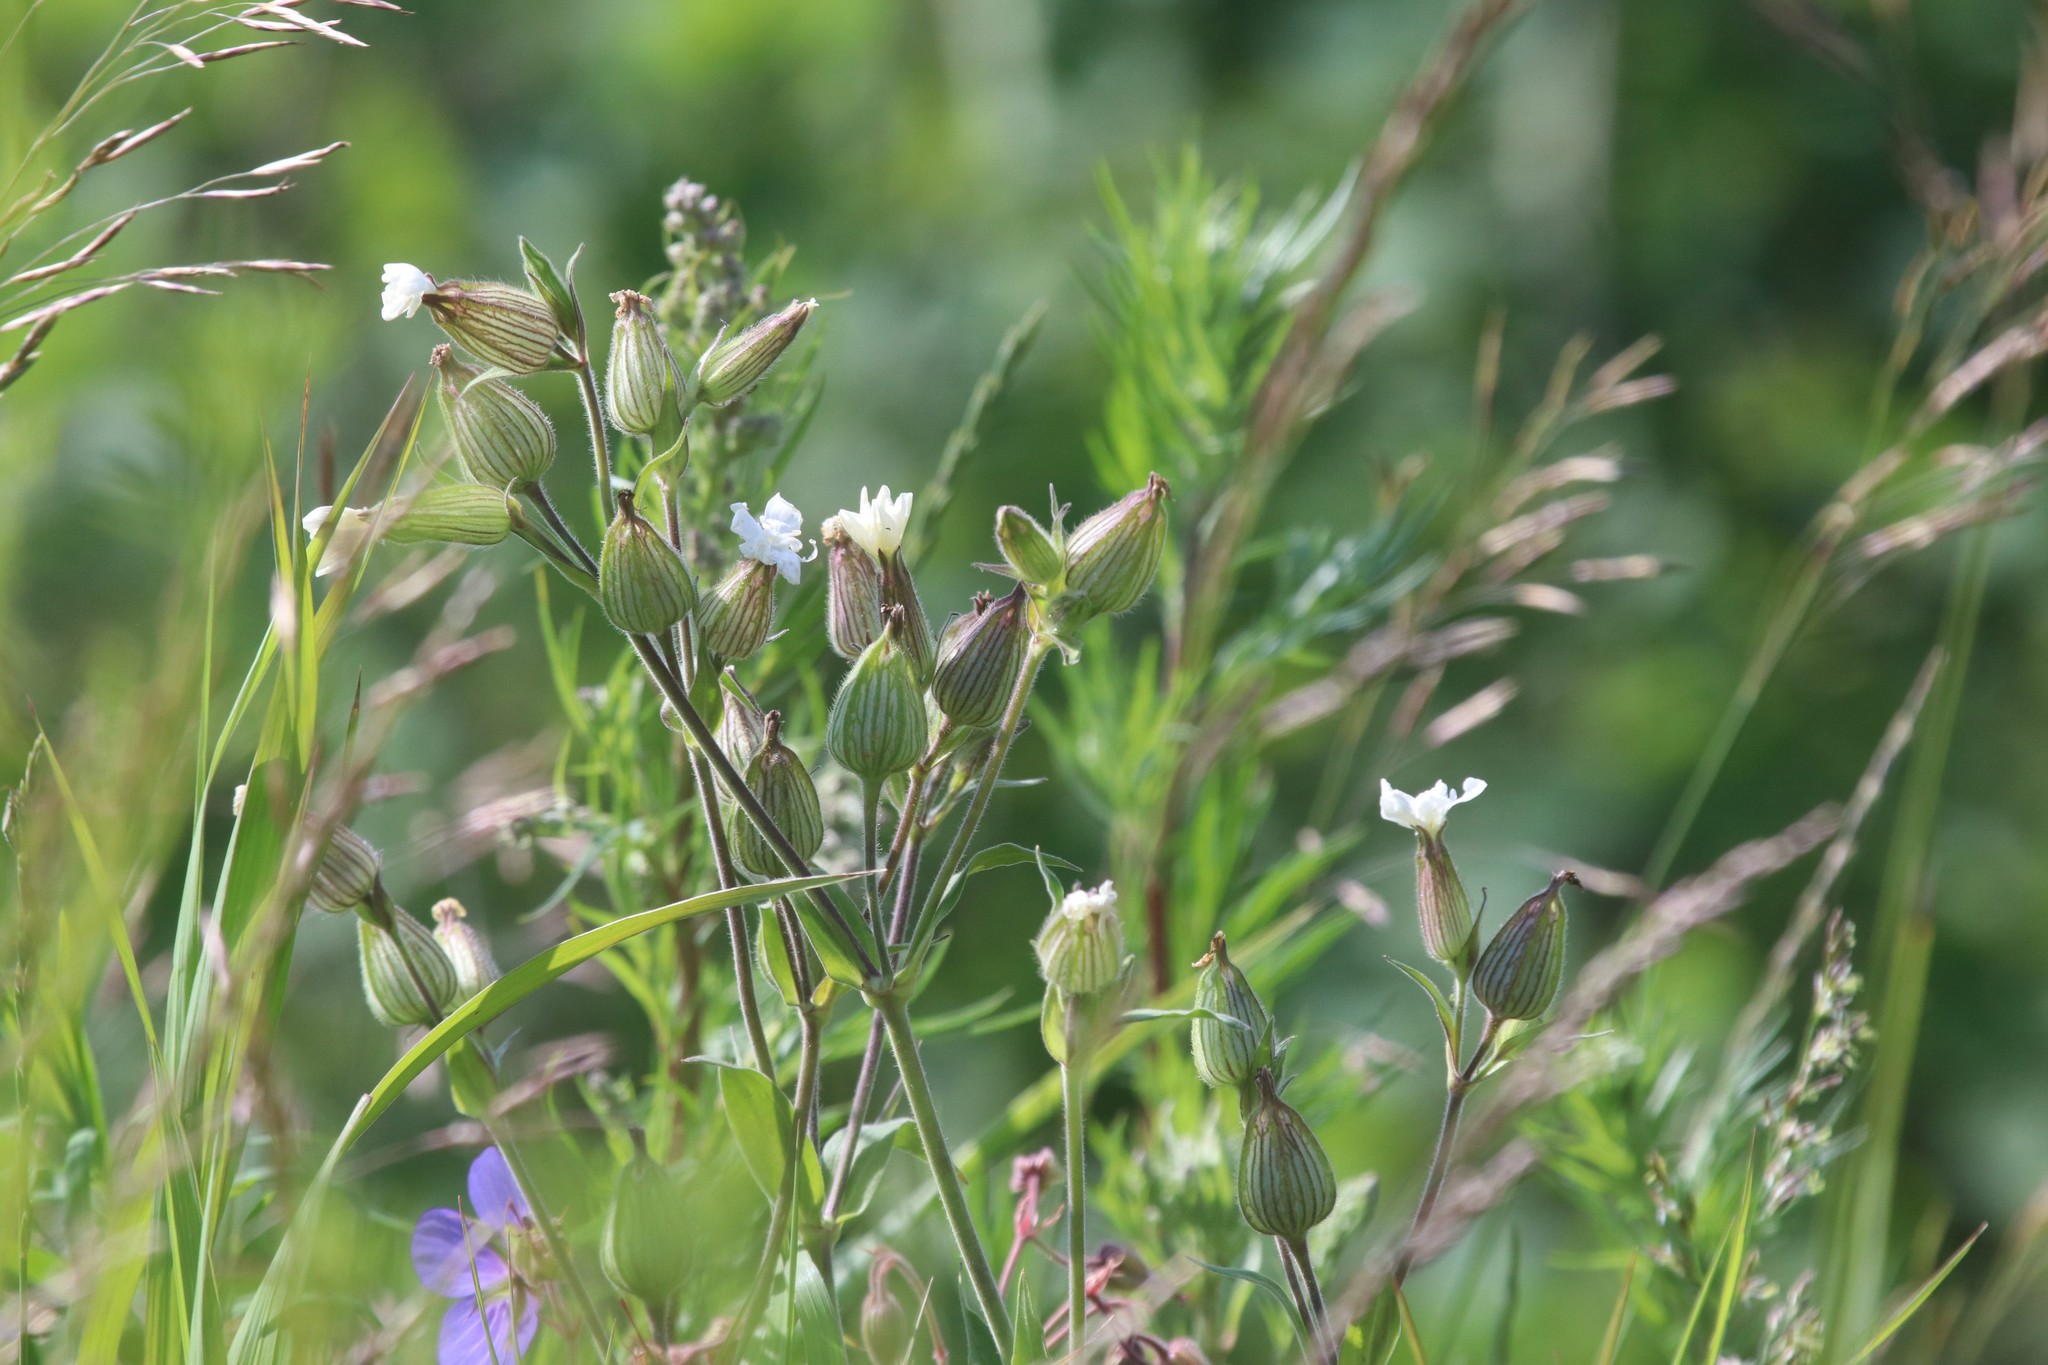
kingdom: Plantae
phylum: Tracheophyta
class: Magnoliopsida
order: Caryophyllales
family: Caryophyllaceae
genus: Silene
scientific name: Silene latifolia
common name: White campion
